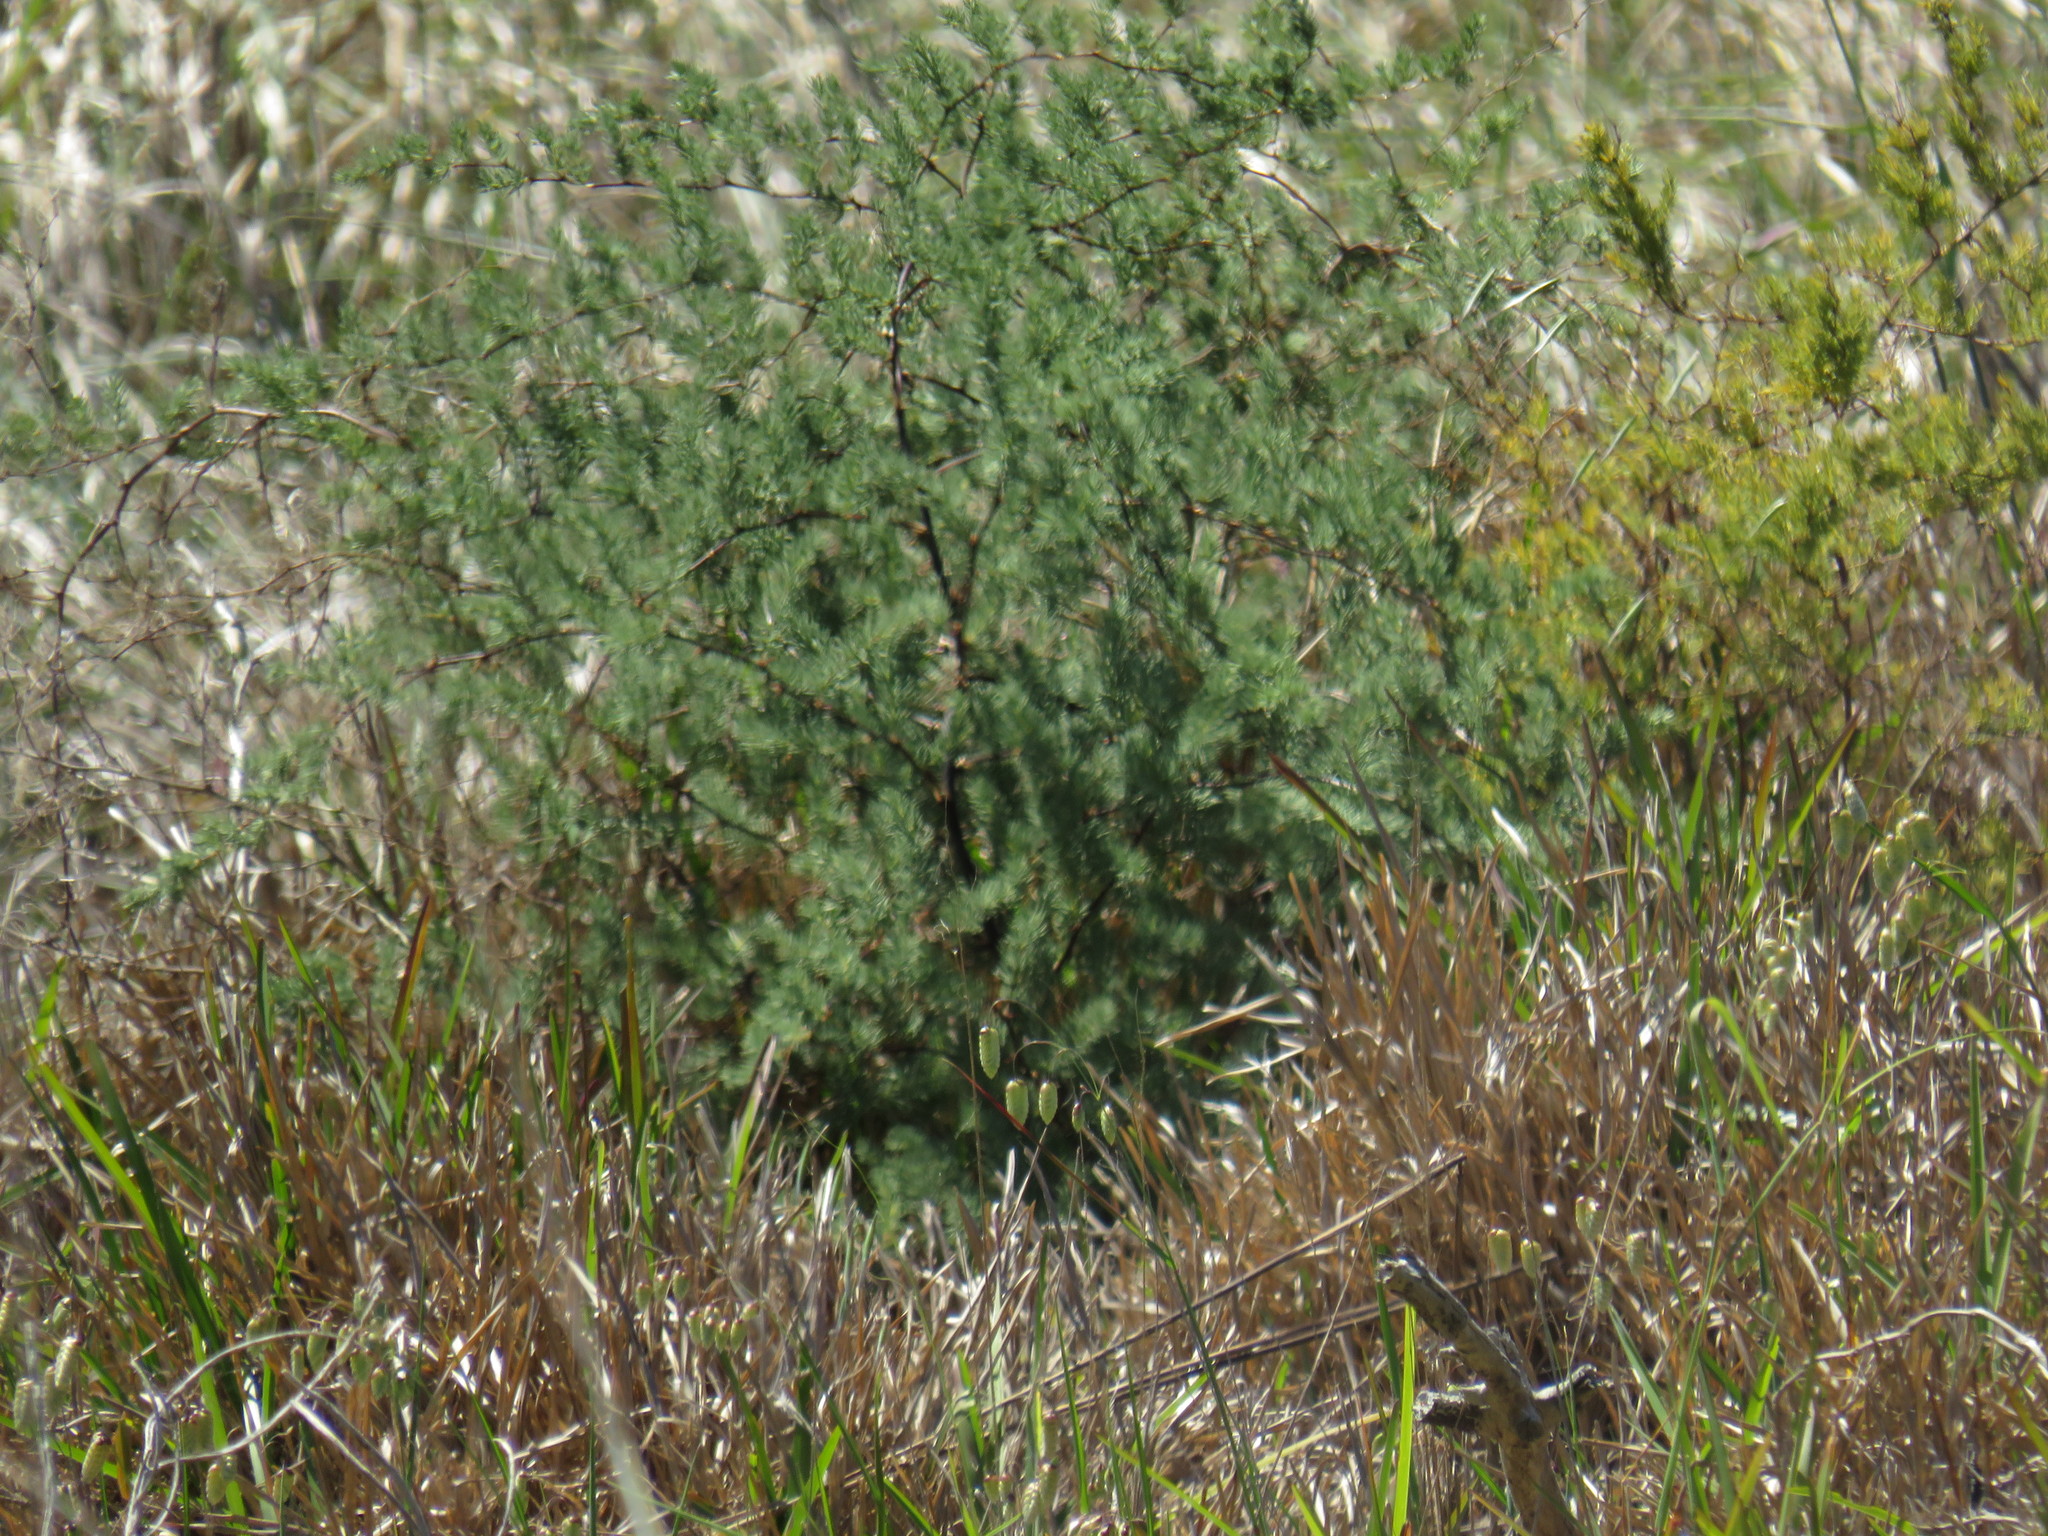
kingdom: Plantae
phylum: Tracheophyta
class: Liliopsida
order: Asparagales
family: Asparagaceae
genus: Asparagus
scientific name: Asparagus rubicundus
